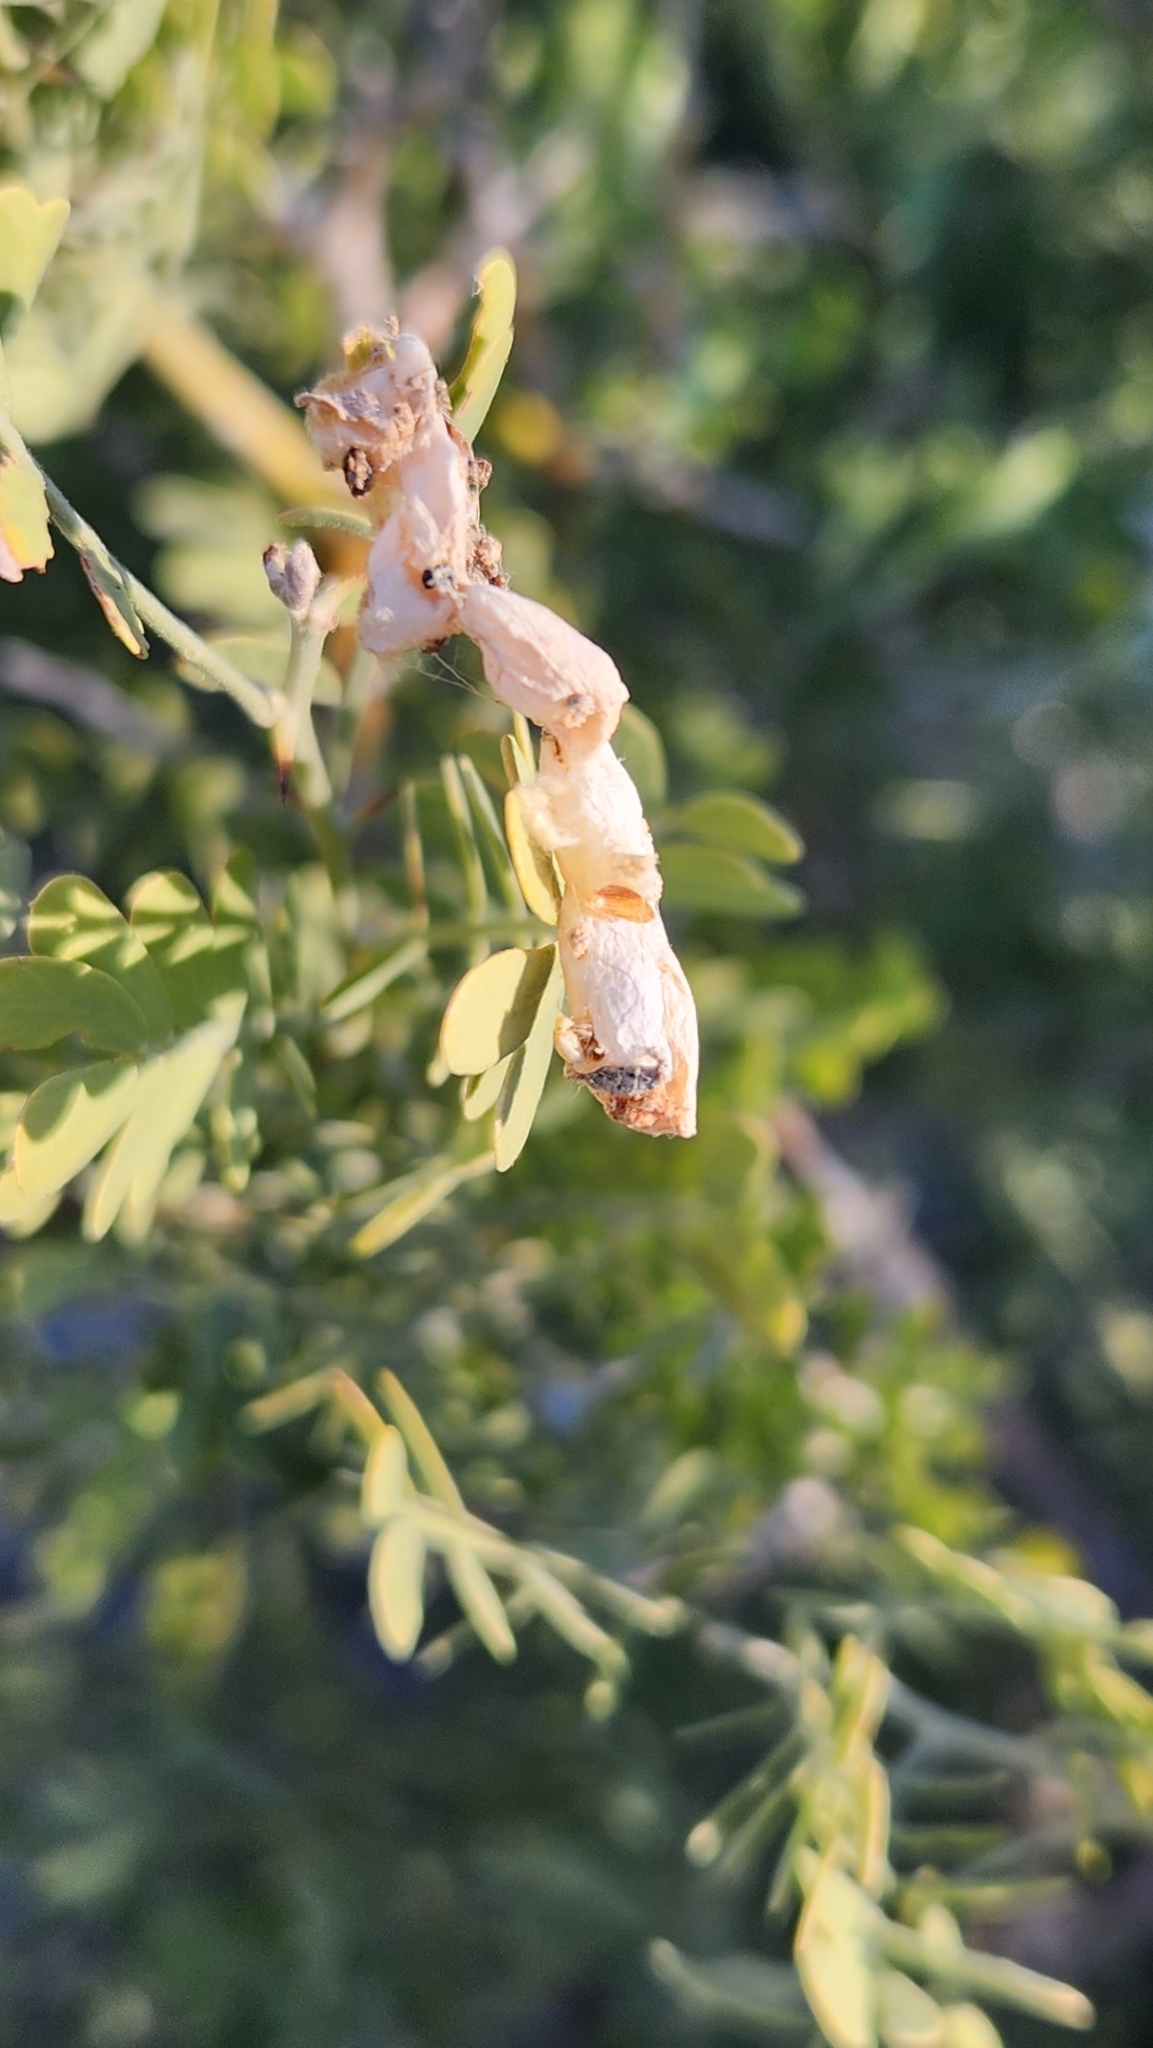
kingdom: Plantae
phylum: Tracheophyta
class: Magnoliopsida
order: Fabales
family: Fabaceae
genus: Olneya
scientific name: Olneya tesota
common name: Desert ironwood
